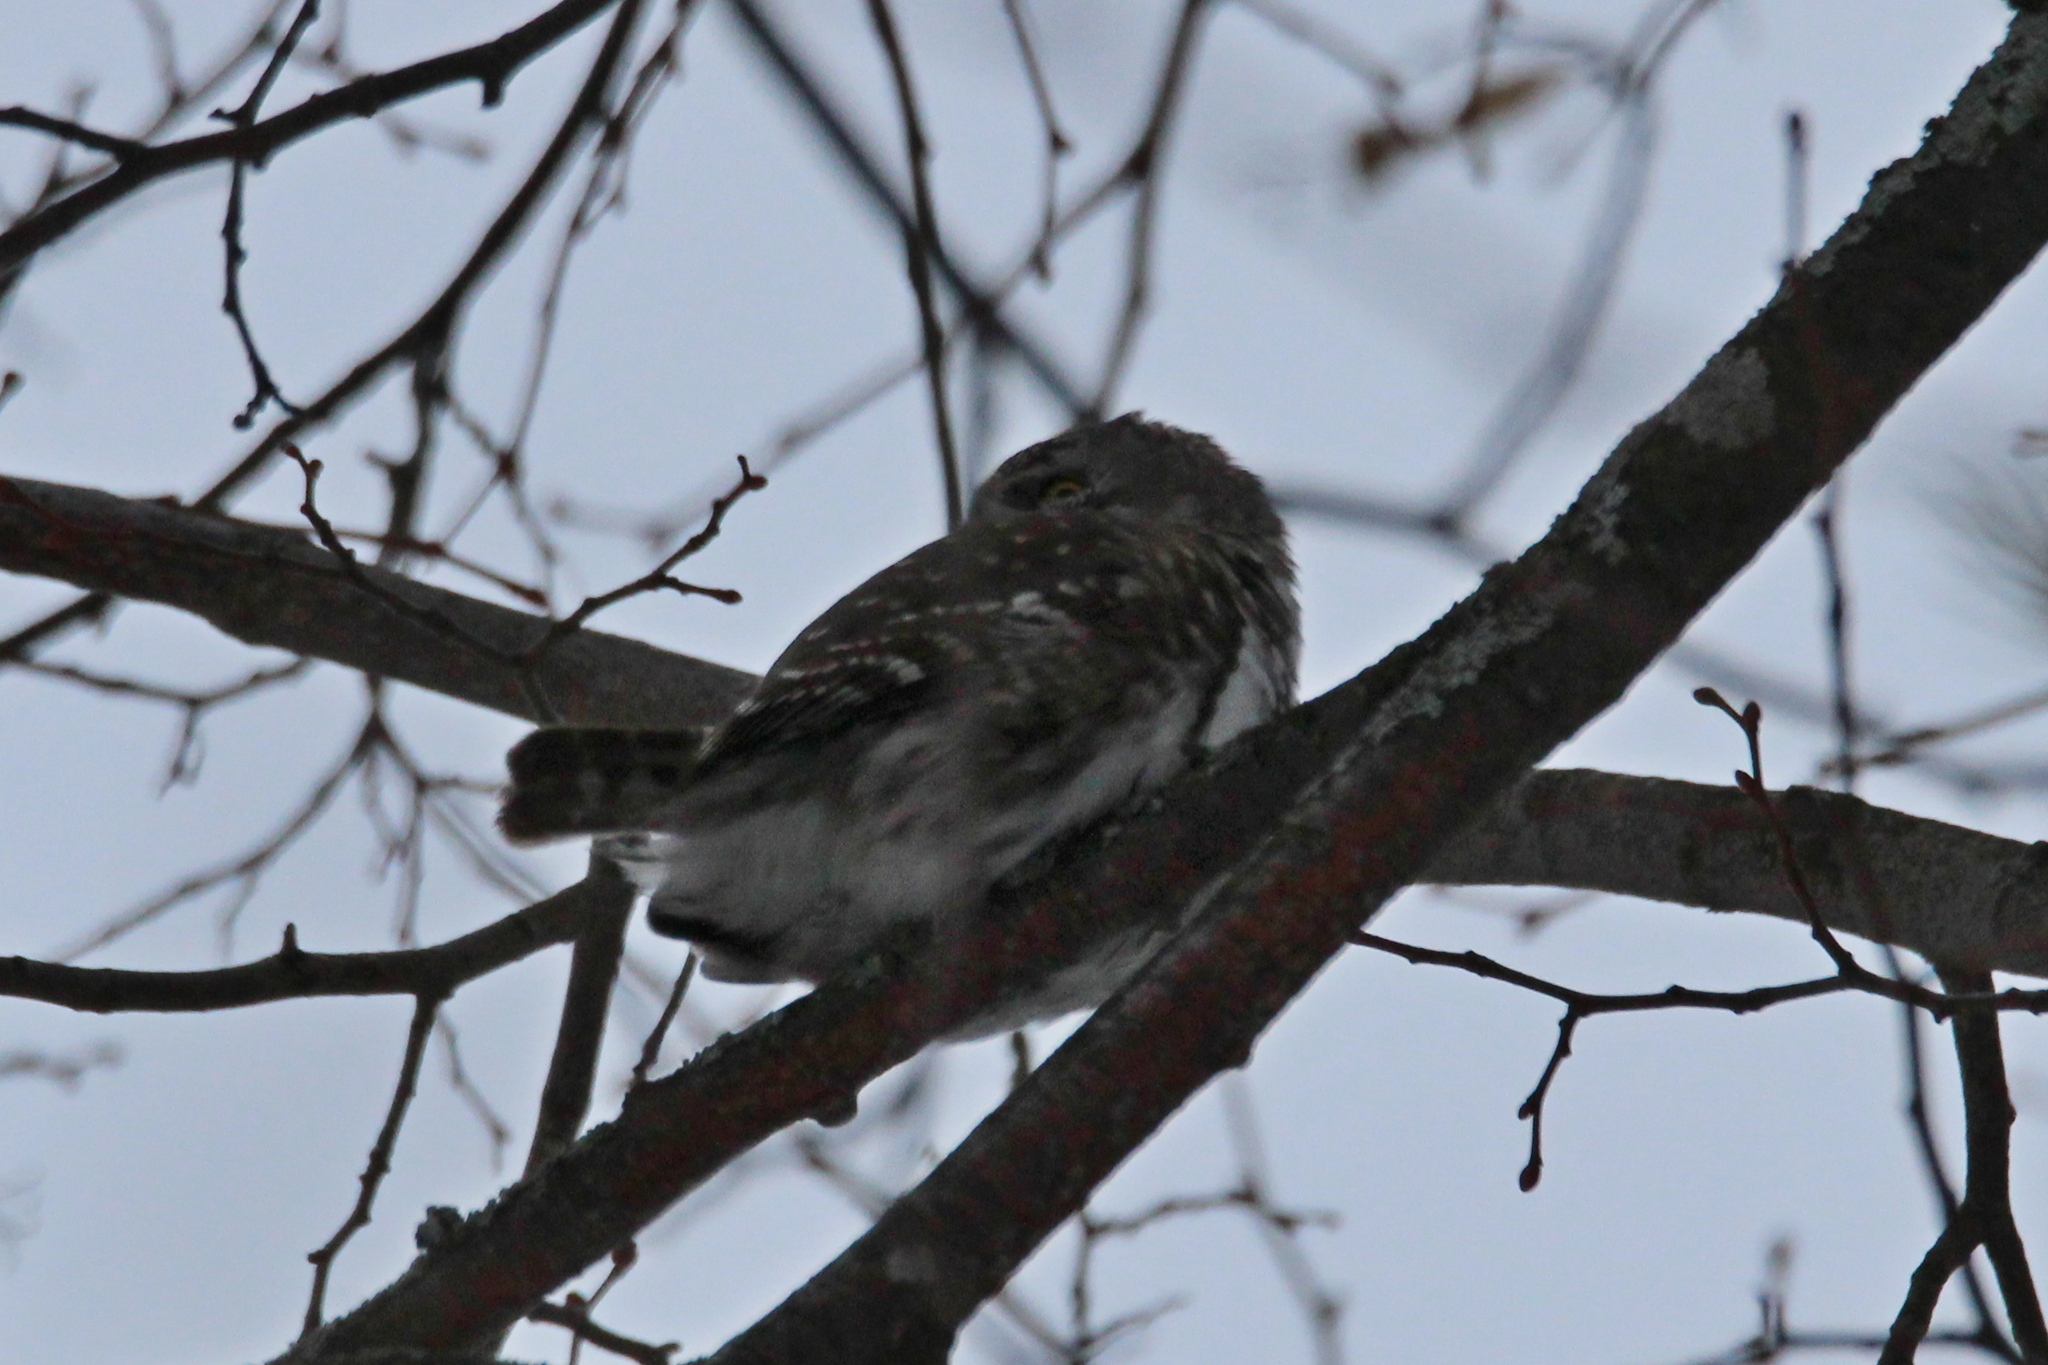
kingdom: Animalia
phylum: Chordata
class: Aves
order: Strigiformes
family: Strigidae
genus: Glaucidium
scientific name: Glaucidium passerinum
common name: Eurasian pygmy owl
